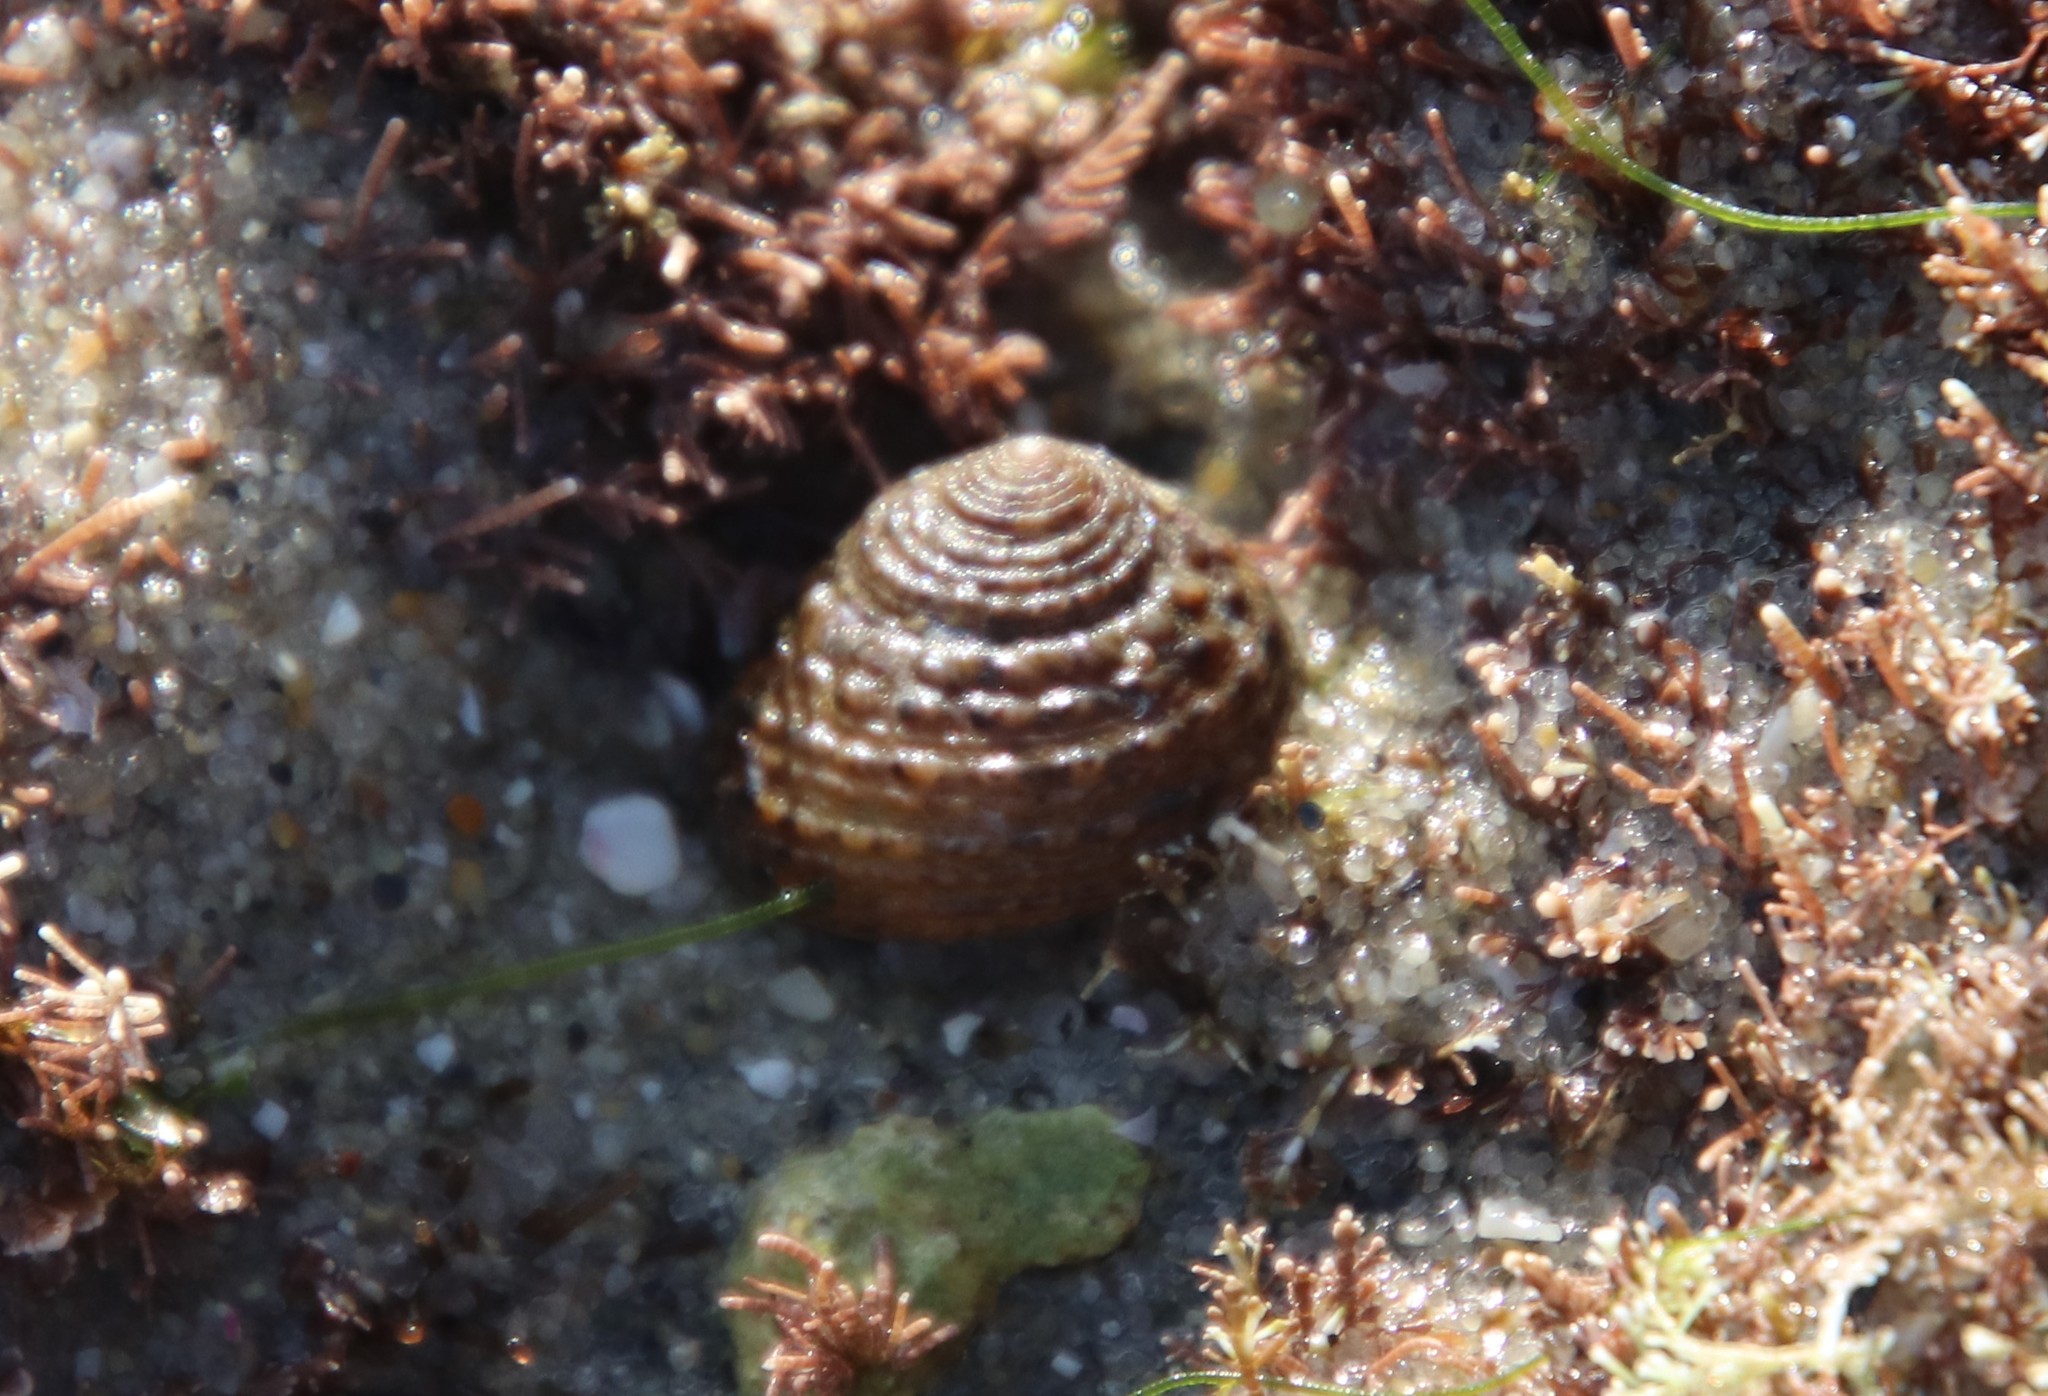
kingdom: Animalia
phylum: Mollusca
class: Gastropoda
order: Trochida
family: Tegulidae
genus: Tegula
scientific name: Tegula eiseni
